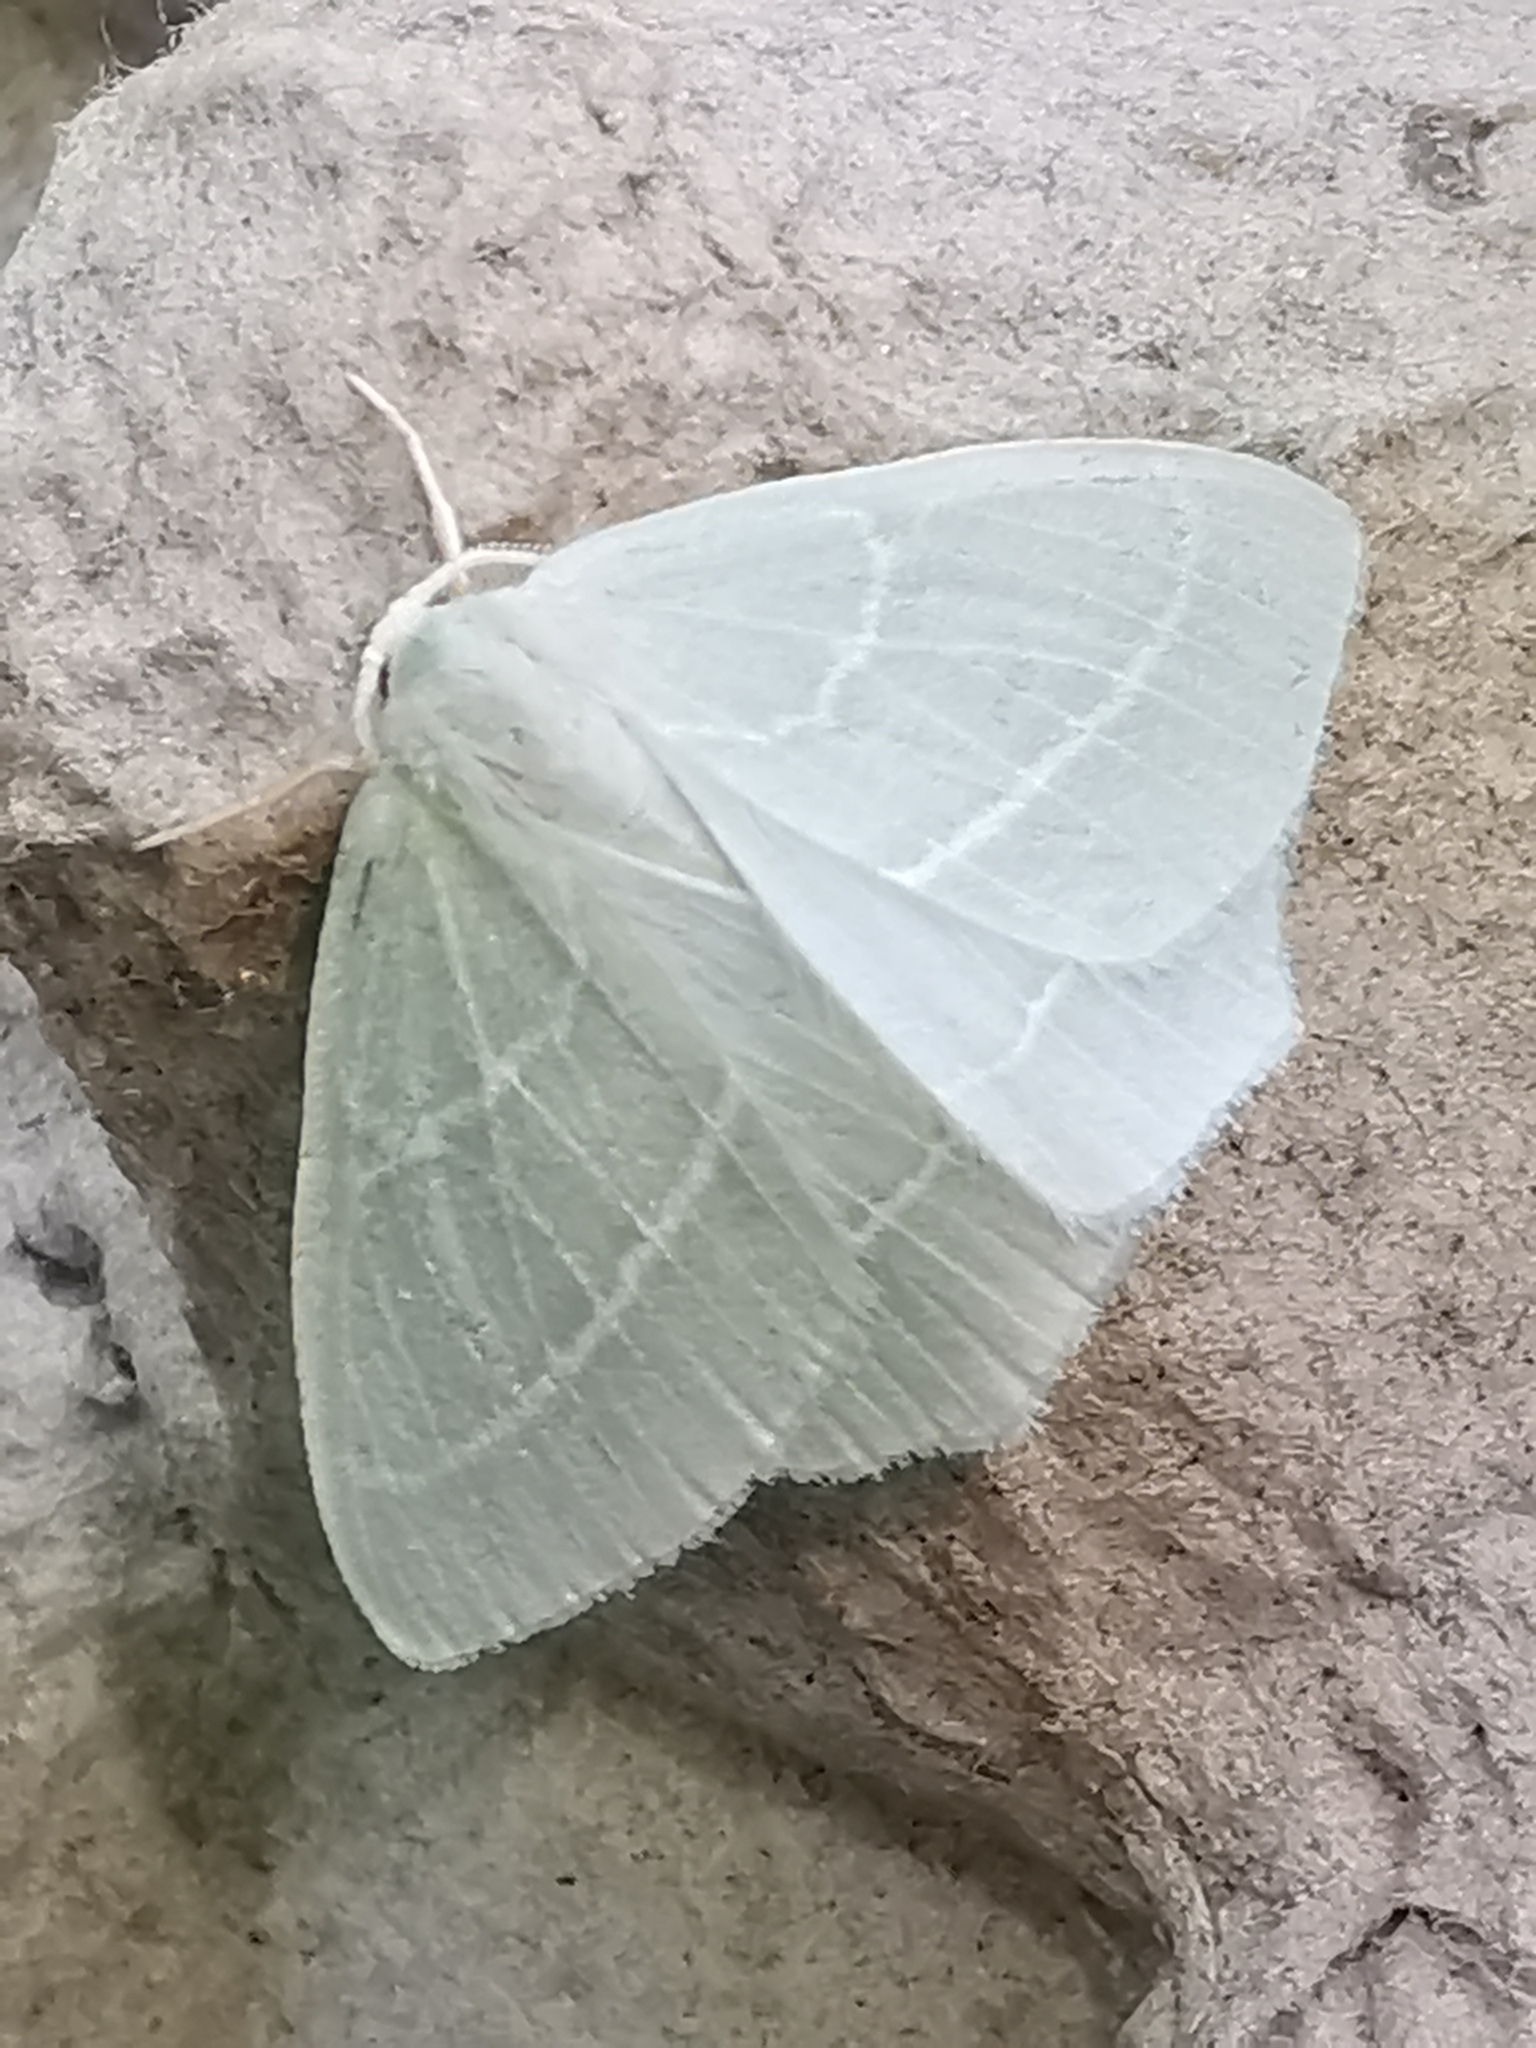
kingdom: Animalia
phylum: Arthropoda
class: Insecta
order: Lepidoptera
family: Geometridae
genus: Hemistola
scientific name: Hemistola chrysoprasaria
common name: Small emerald
